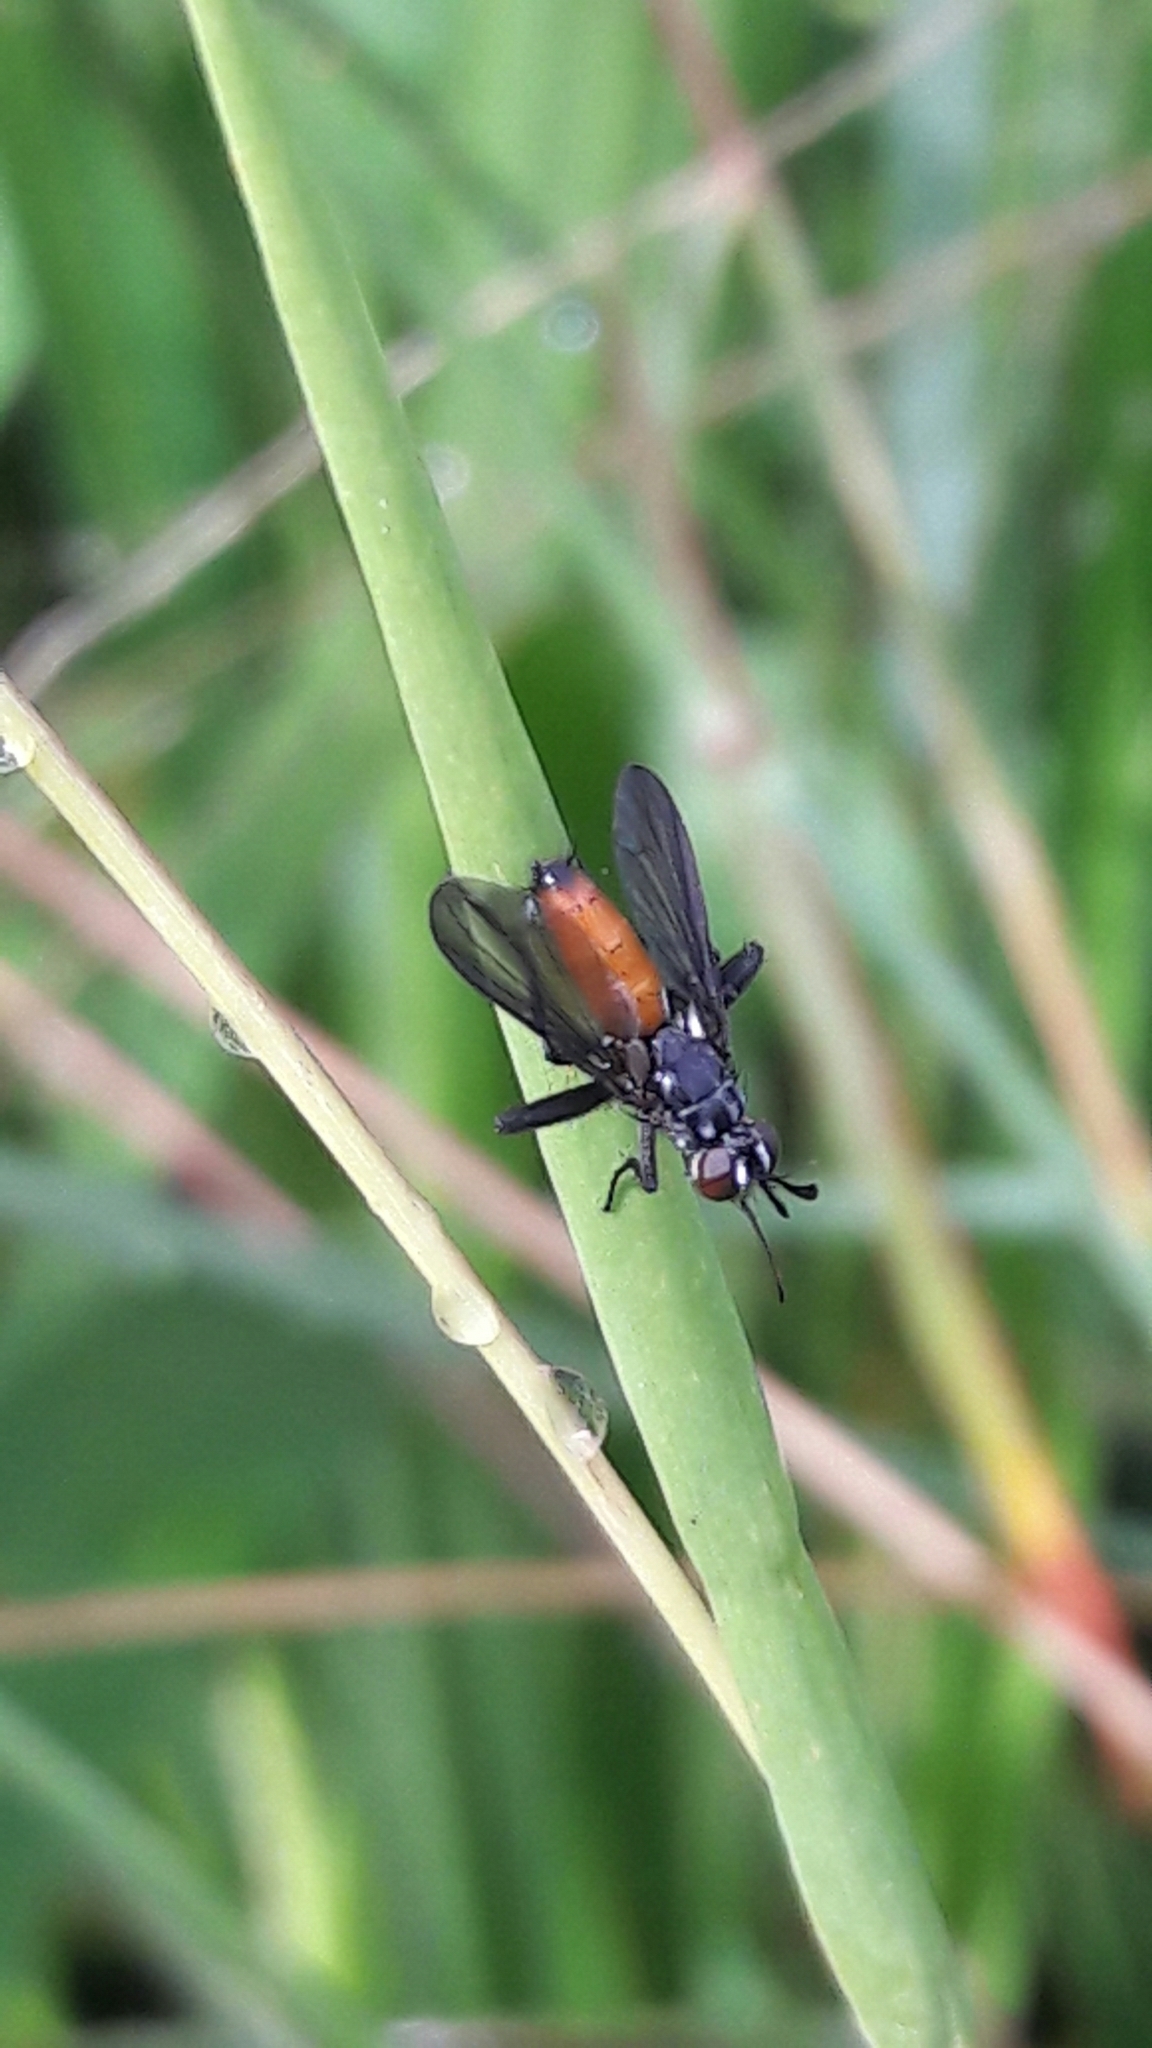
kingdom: Animalia
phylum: Arthropoda
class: Insecta
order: Diptera
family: Tachinidae
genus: Beskia
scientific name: Beskia aelops
